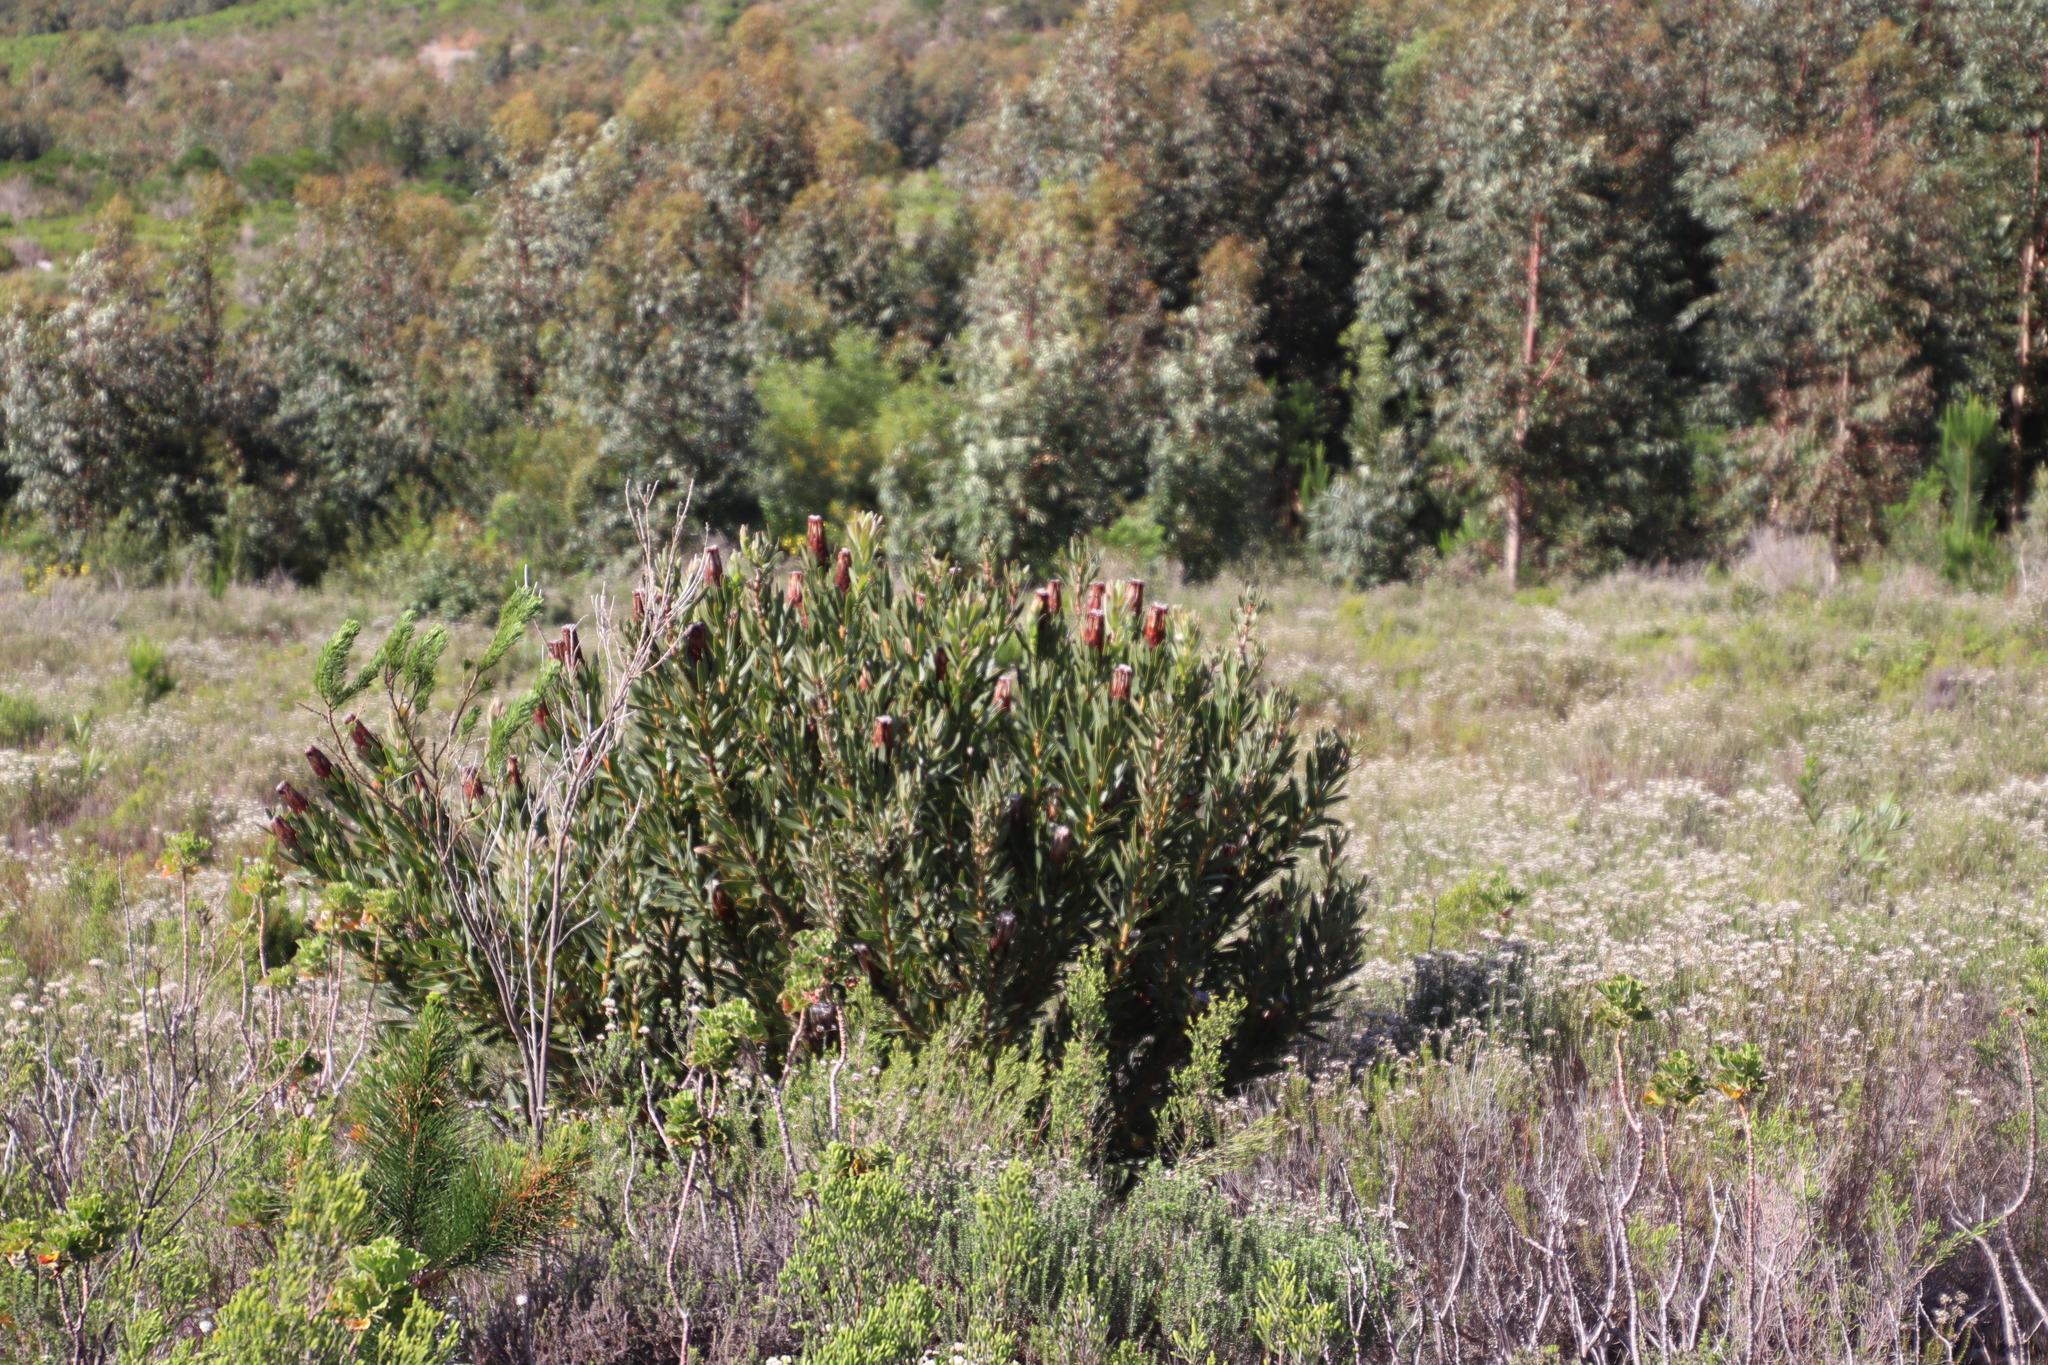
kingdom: Plantae
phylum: Tracheophyta
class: Magnoliopsida
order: Proteales
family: Proteaceae
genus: Protea
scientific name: Protea lepidocarpodendron
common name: Black-bearded protea
